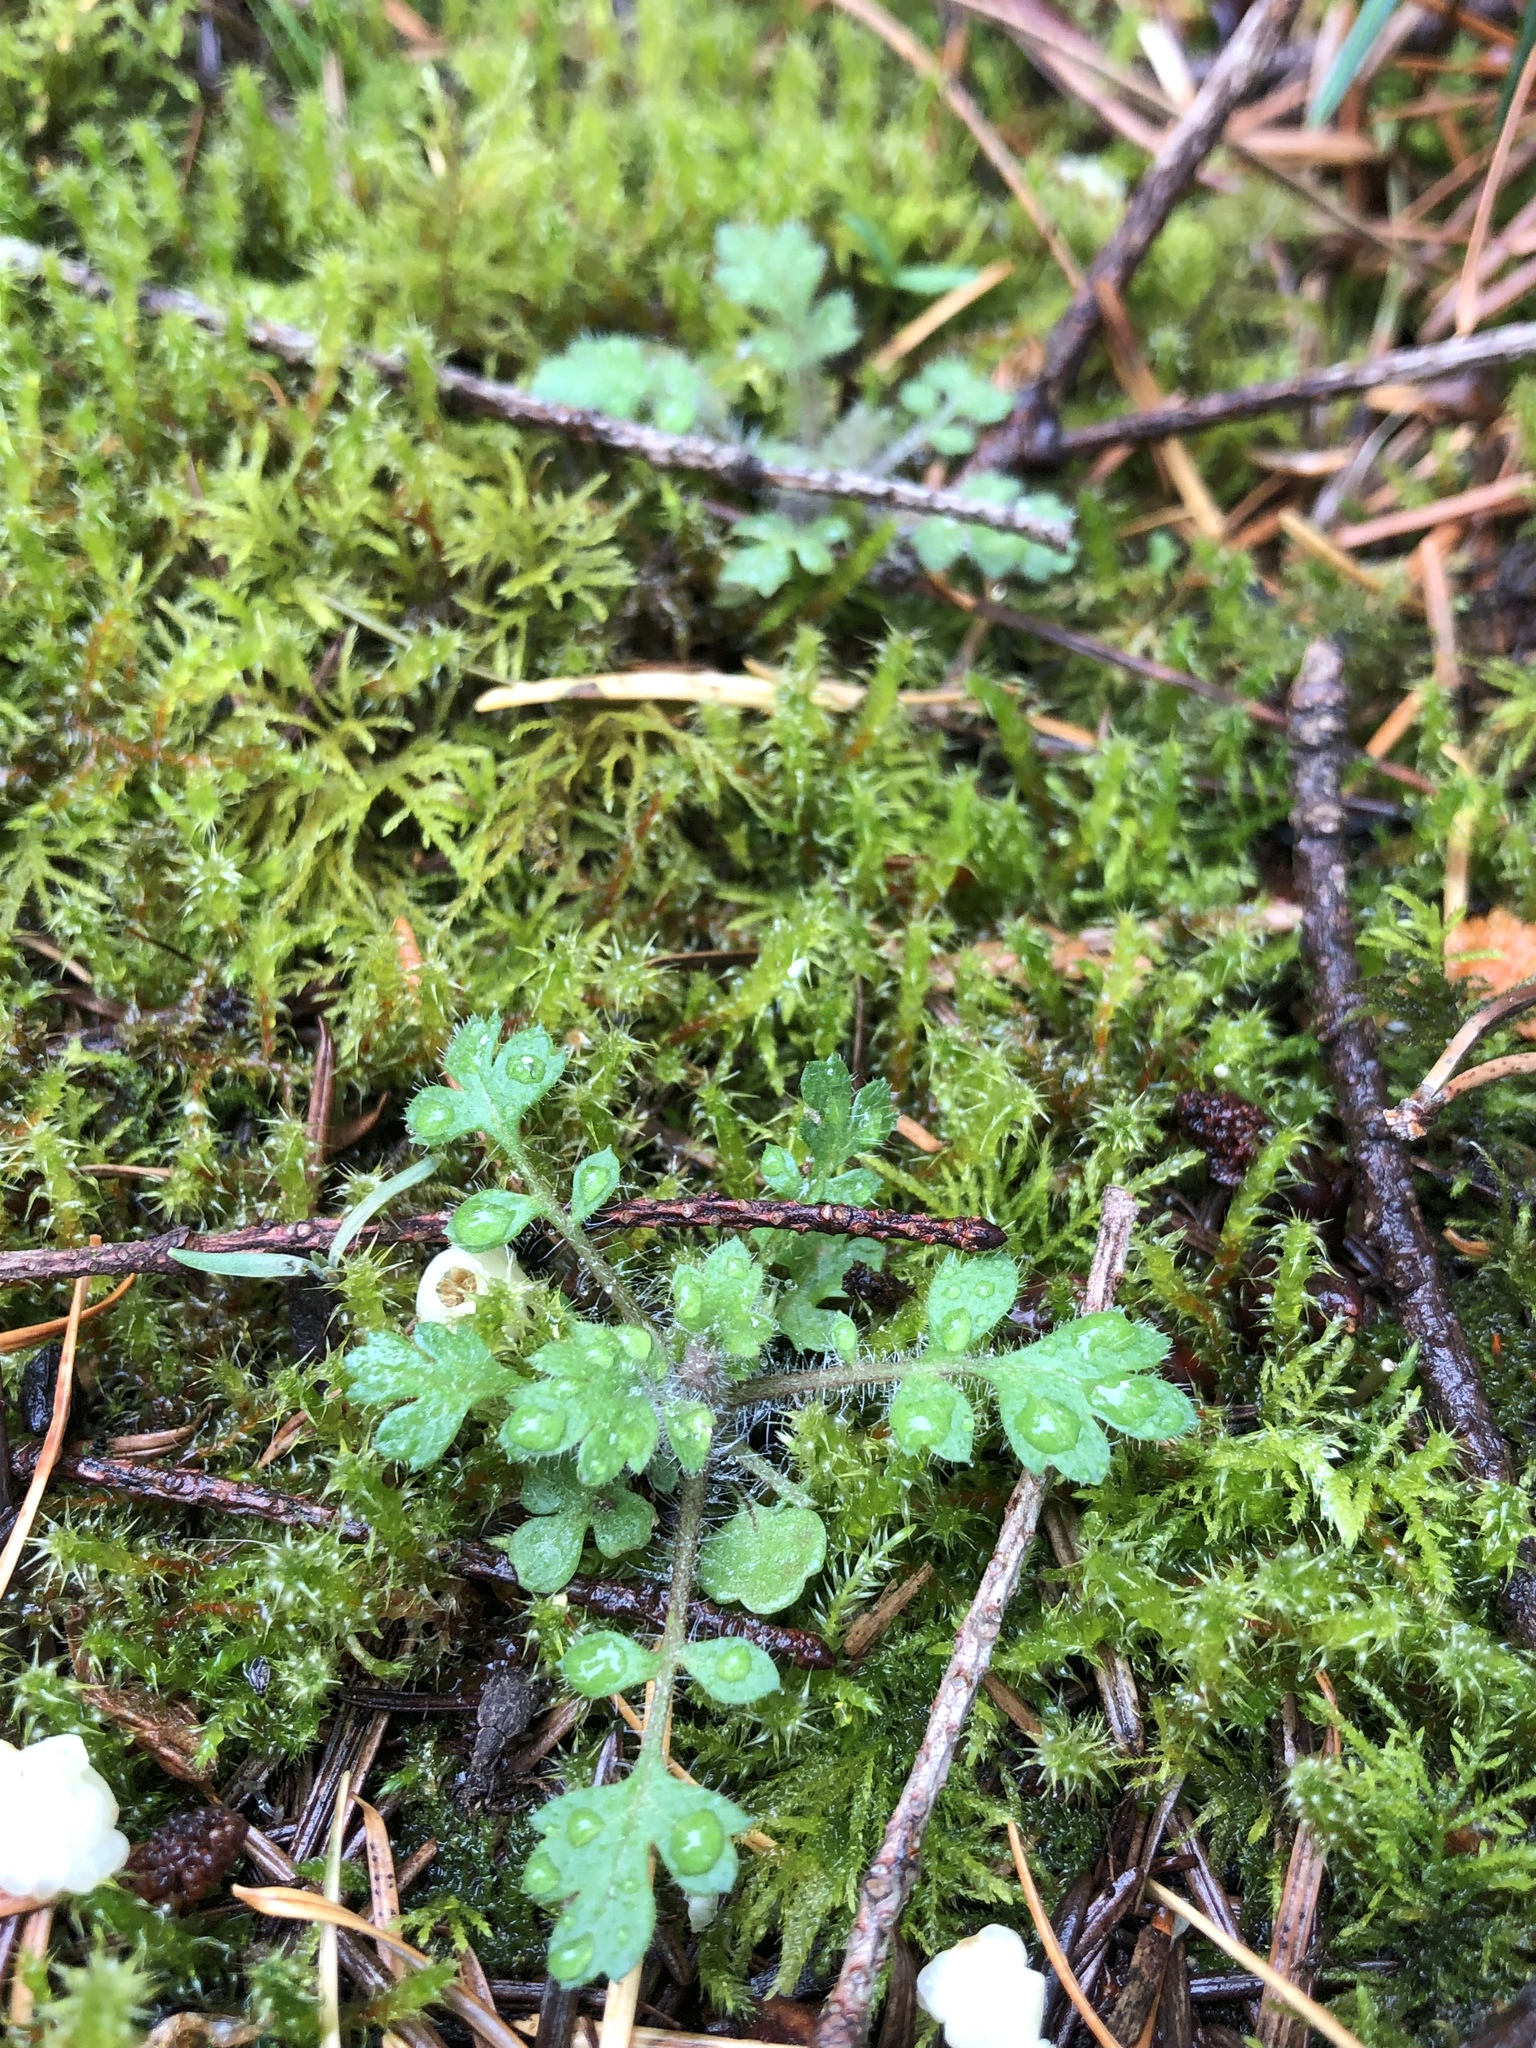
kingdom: Plantae
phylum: Tracheophyta
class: Magnoliopsida
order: Ericales
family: Polemoniaceae
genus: Collomia
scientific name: Collomia heterophylla
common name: Variable-leaved collomia
